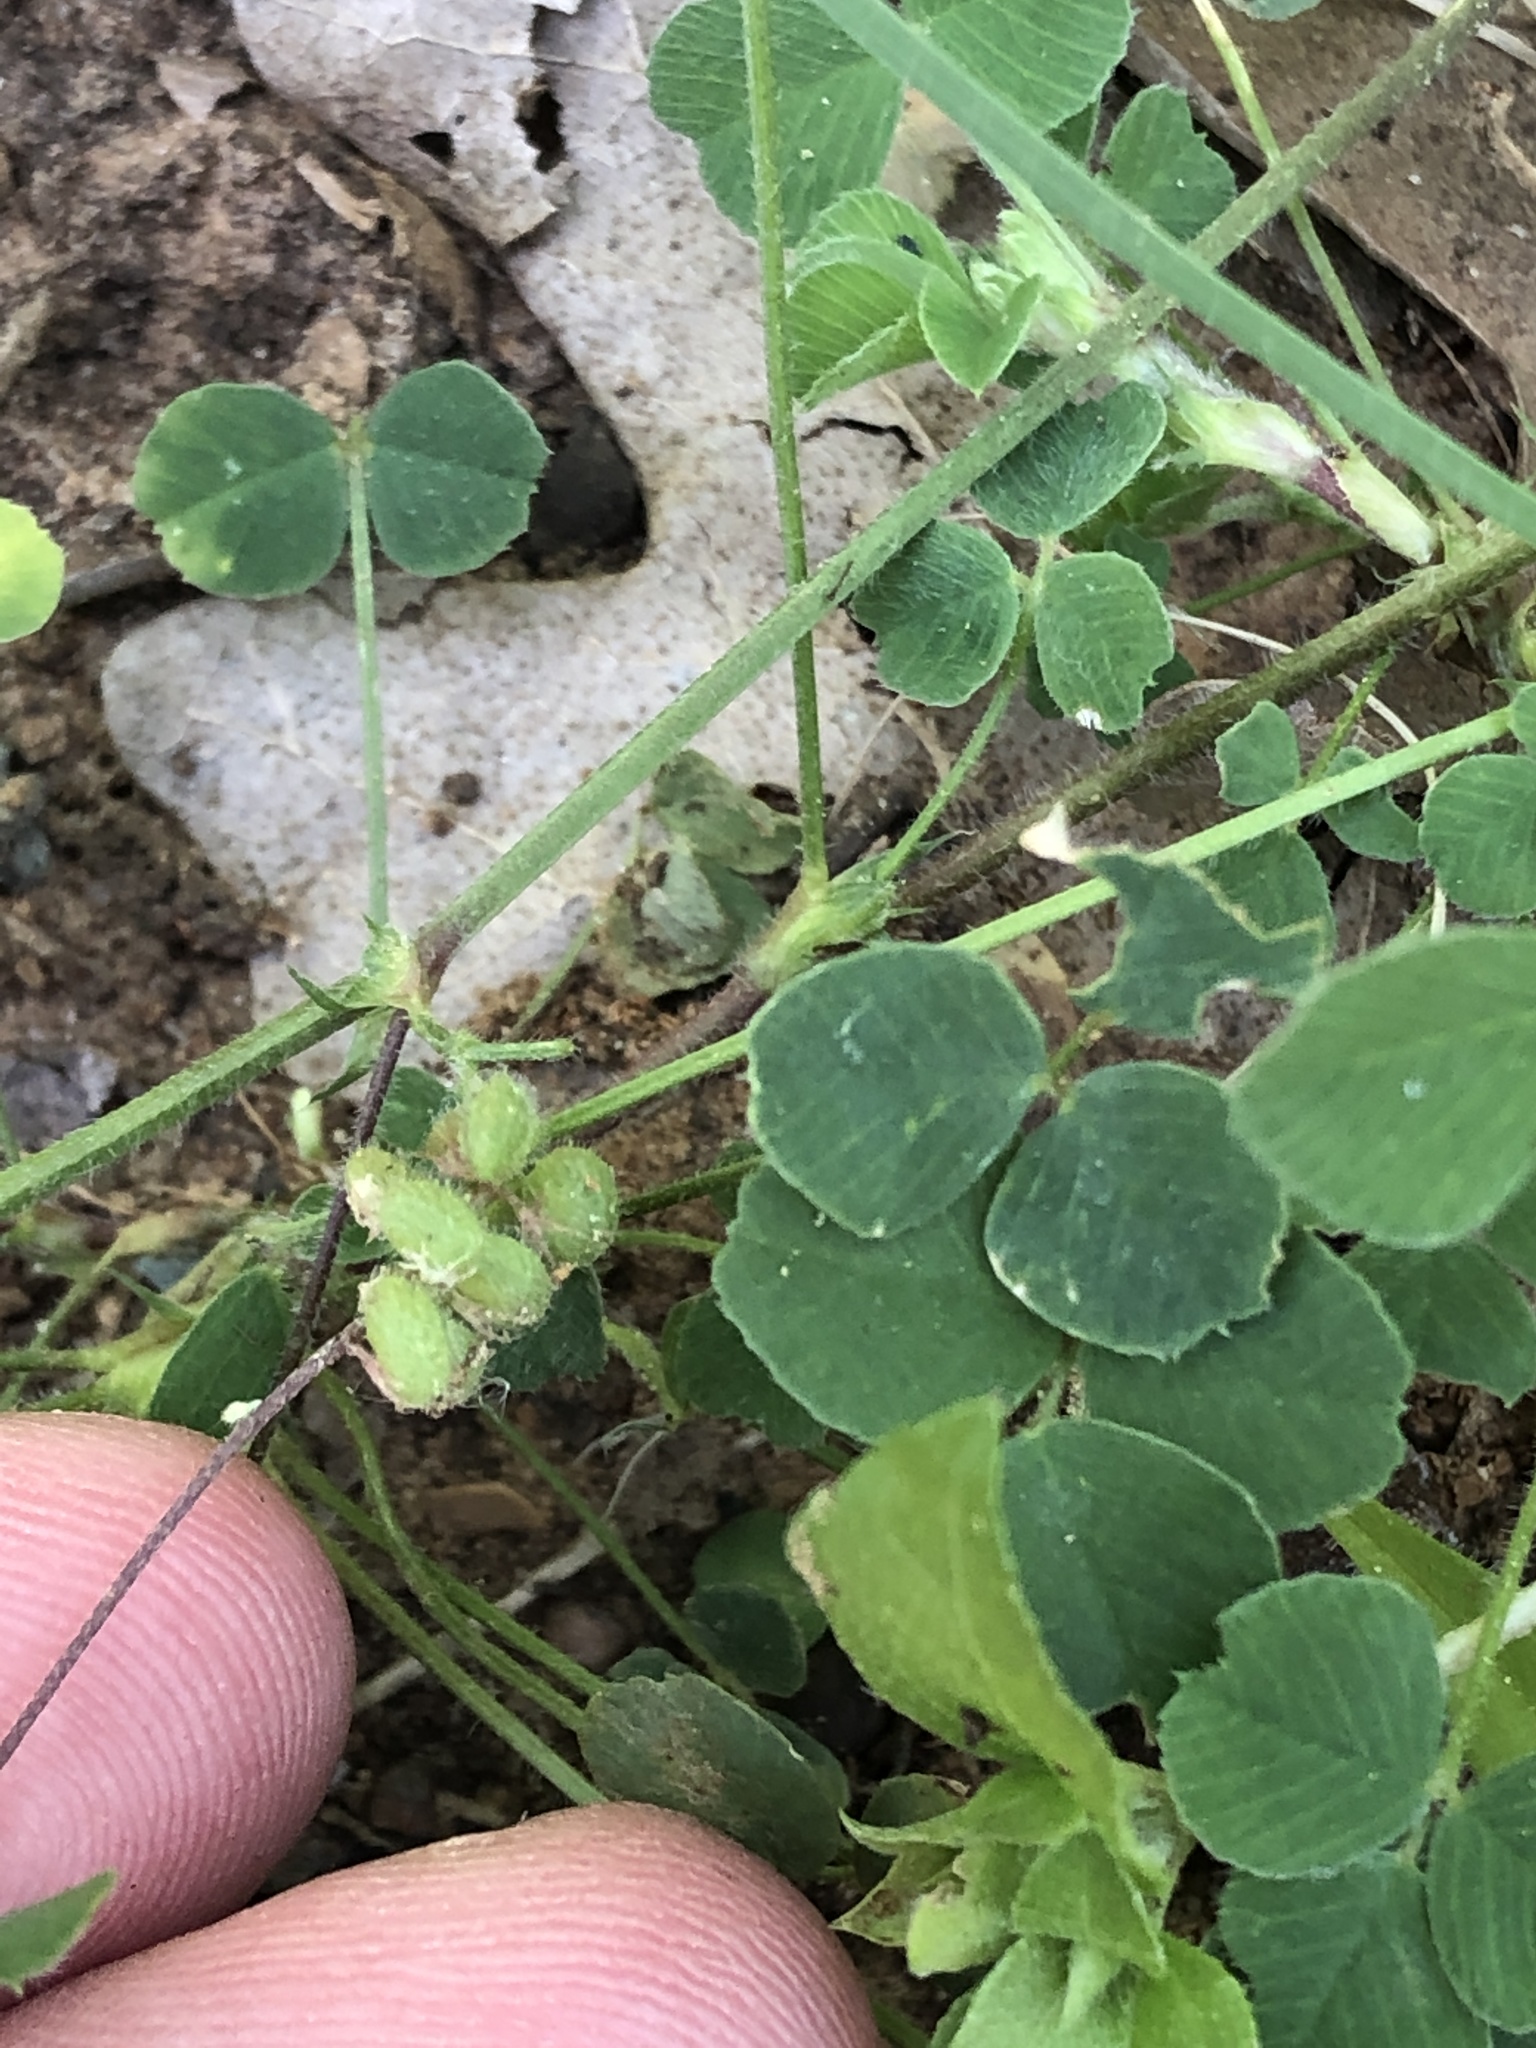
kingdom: Plantae
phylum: Tracheophyta
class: Magnoliopsida
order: Fabales
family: Fabaceae
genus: Medicago
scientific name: Medicago lupulina
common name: Black medick
